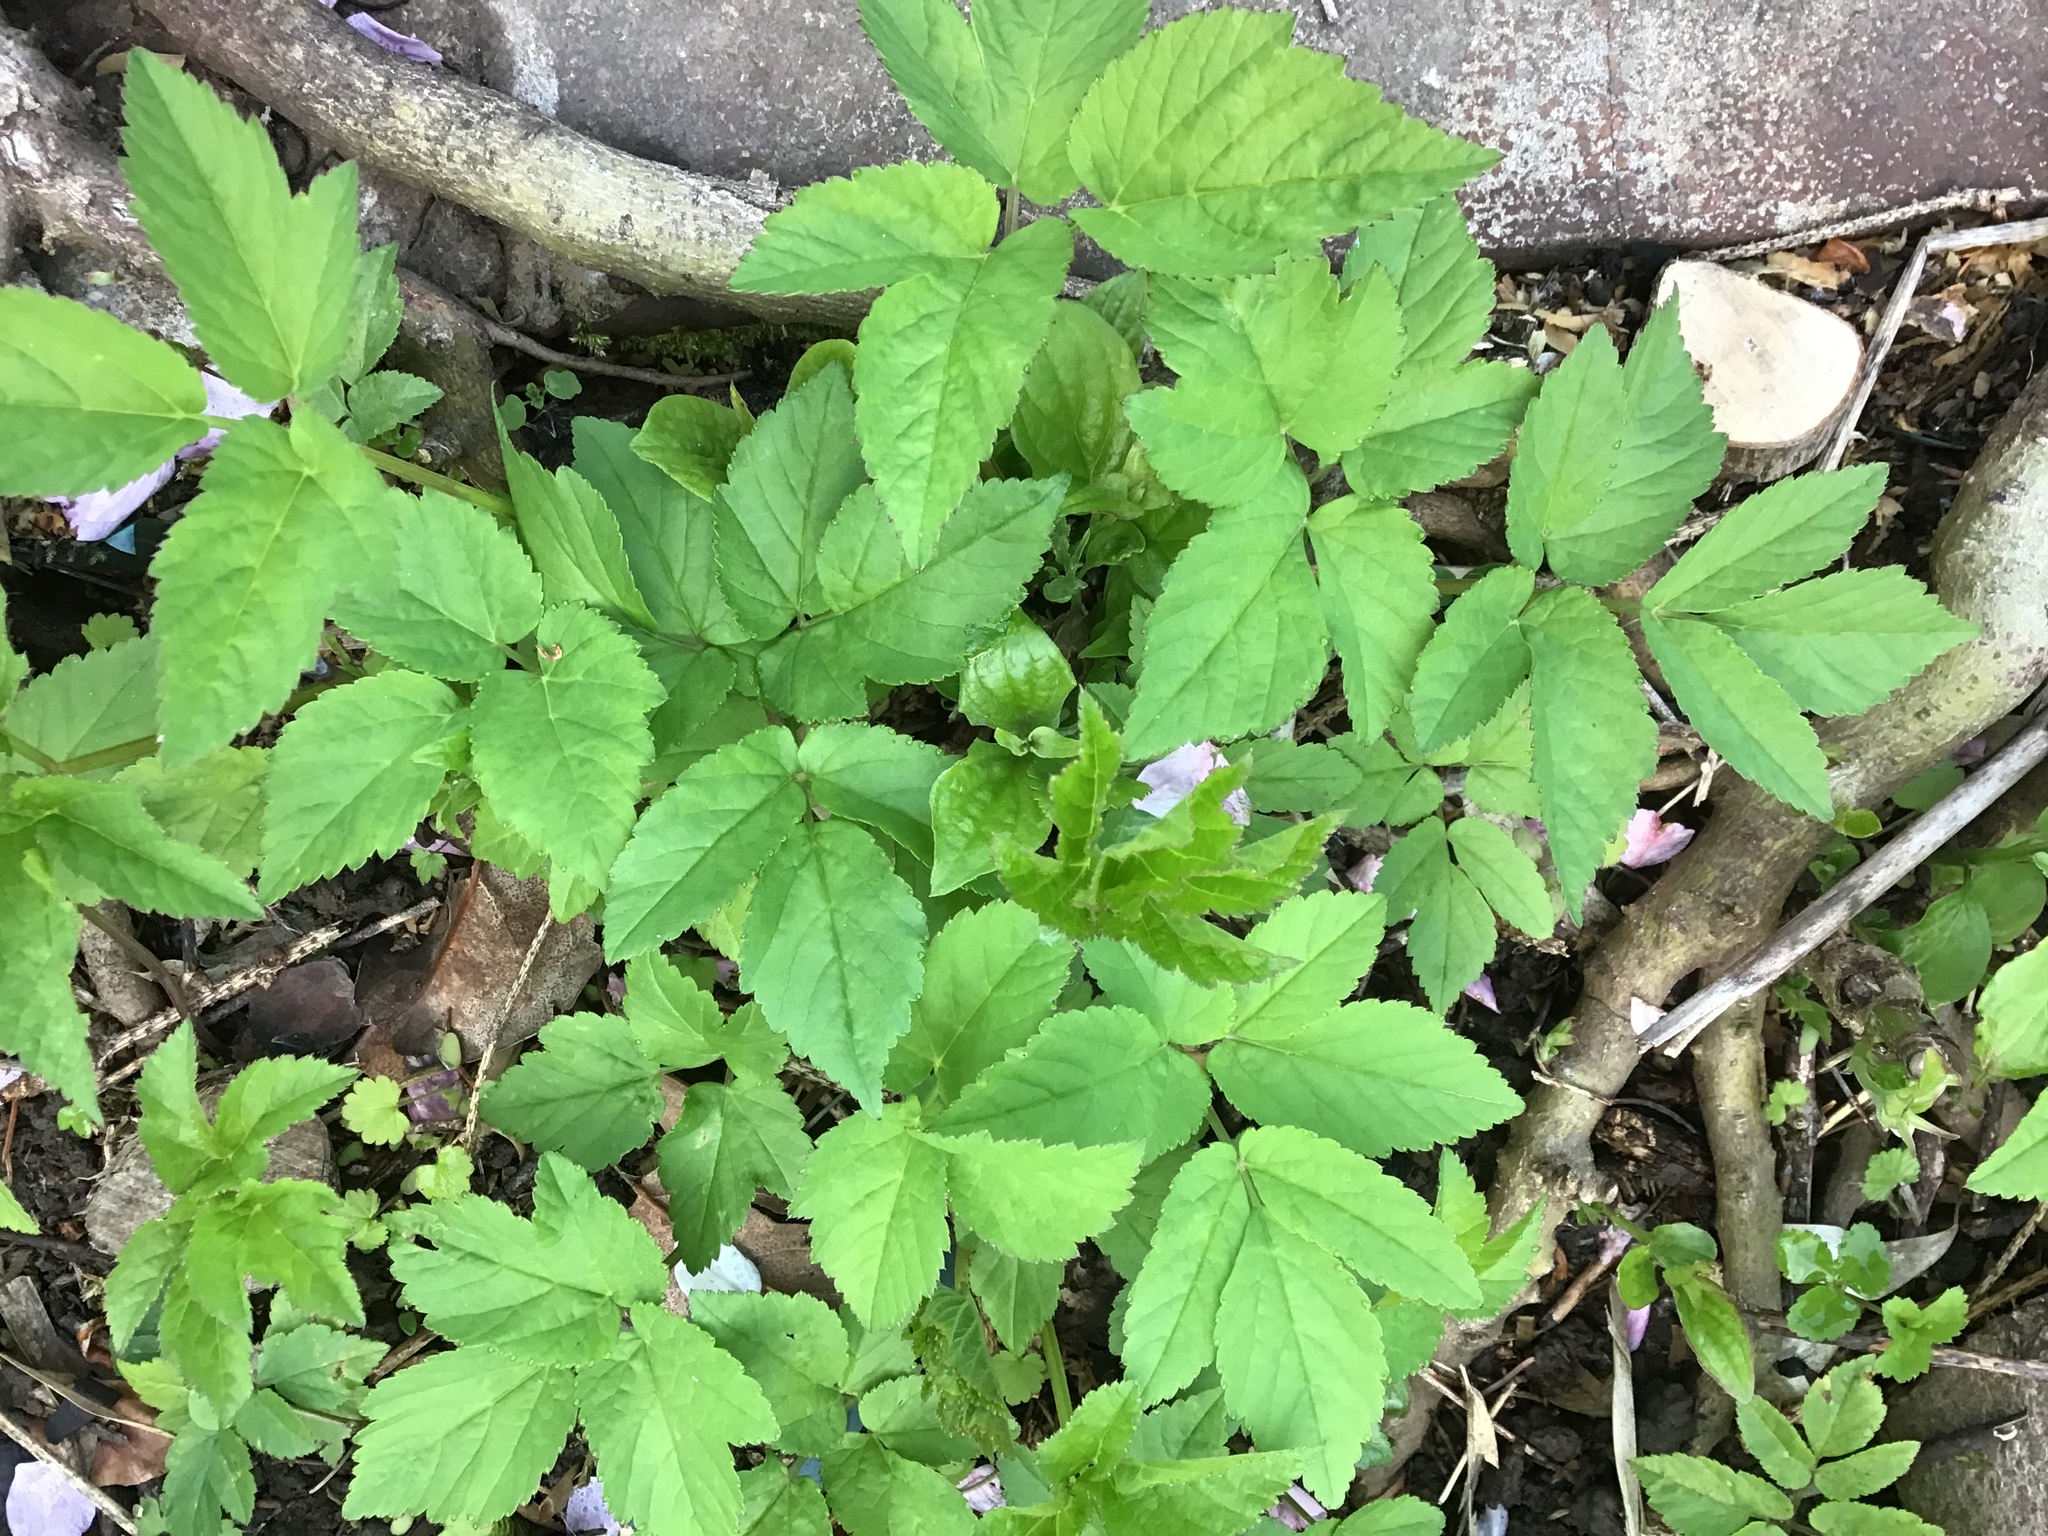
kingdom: Plantae
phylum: Tracheophyta
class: Magnoliopsida
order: Apiales
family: Apiaceae
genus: Aegopodium
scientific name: Aegopodium podagraria
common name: Ground-elder
